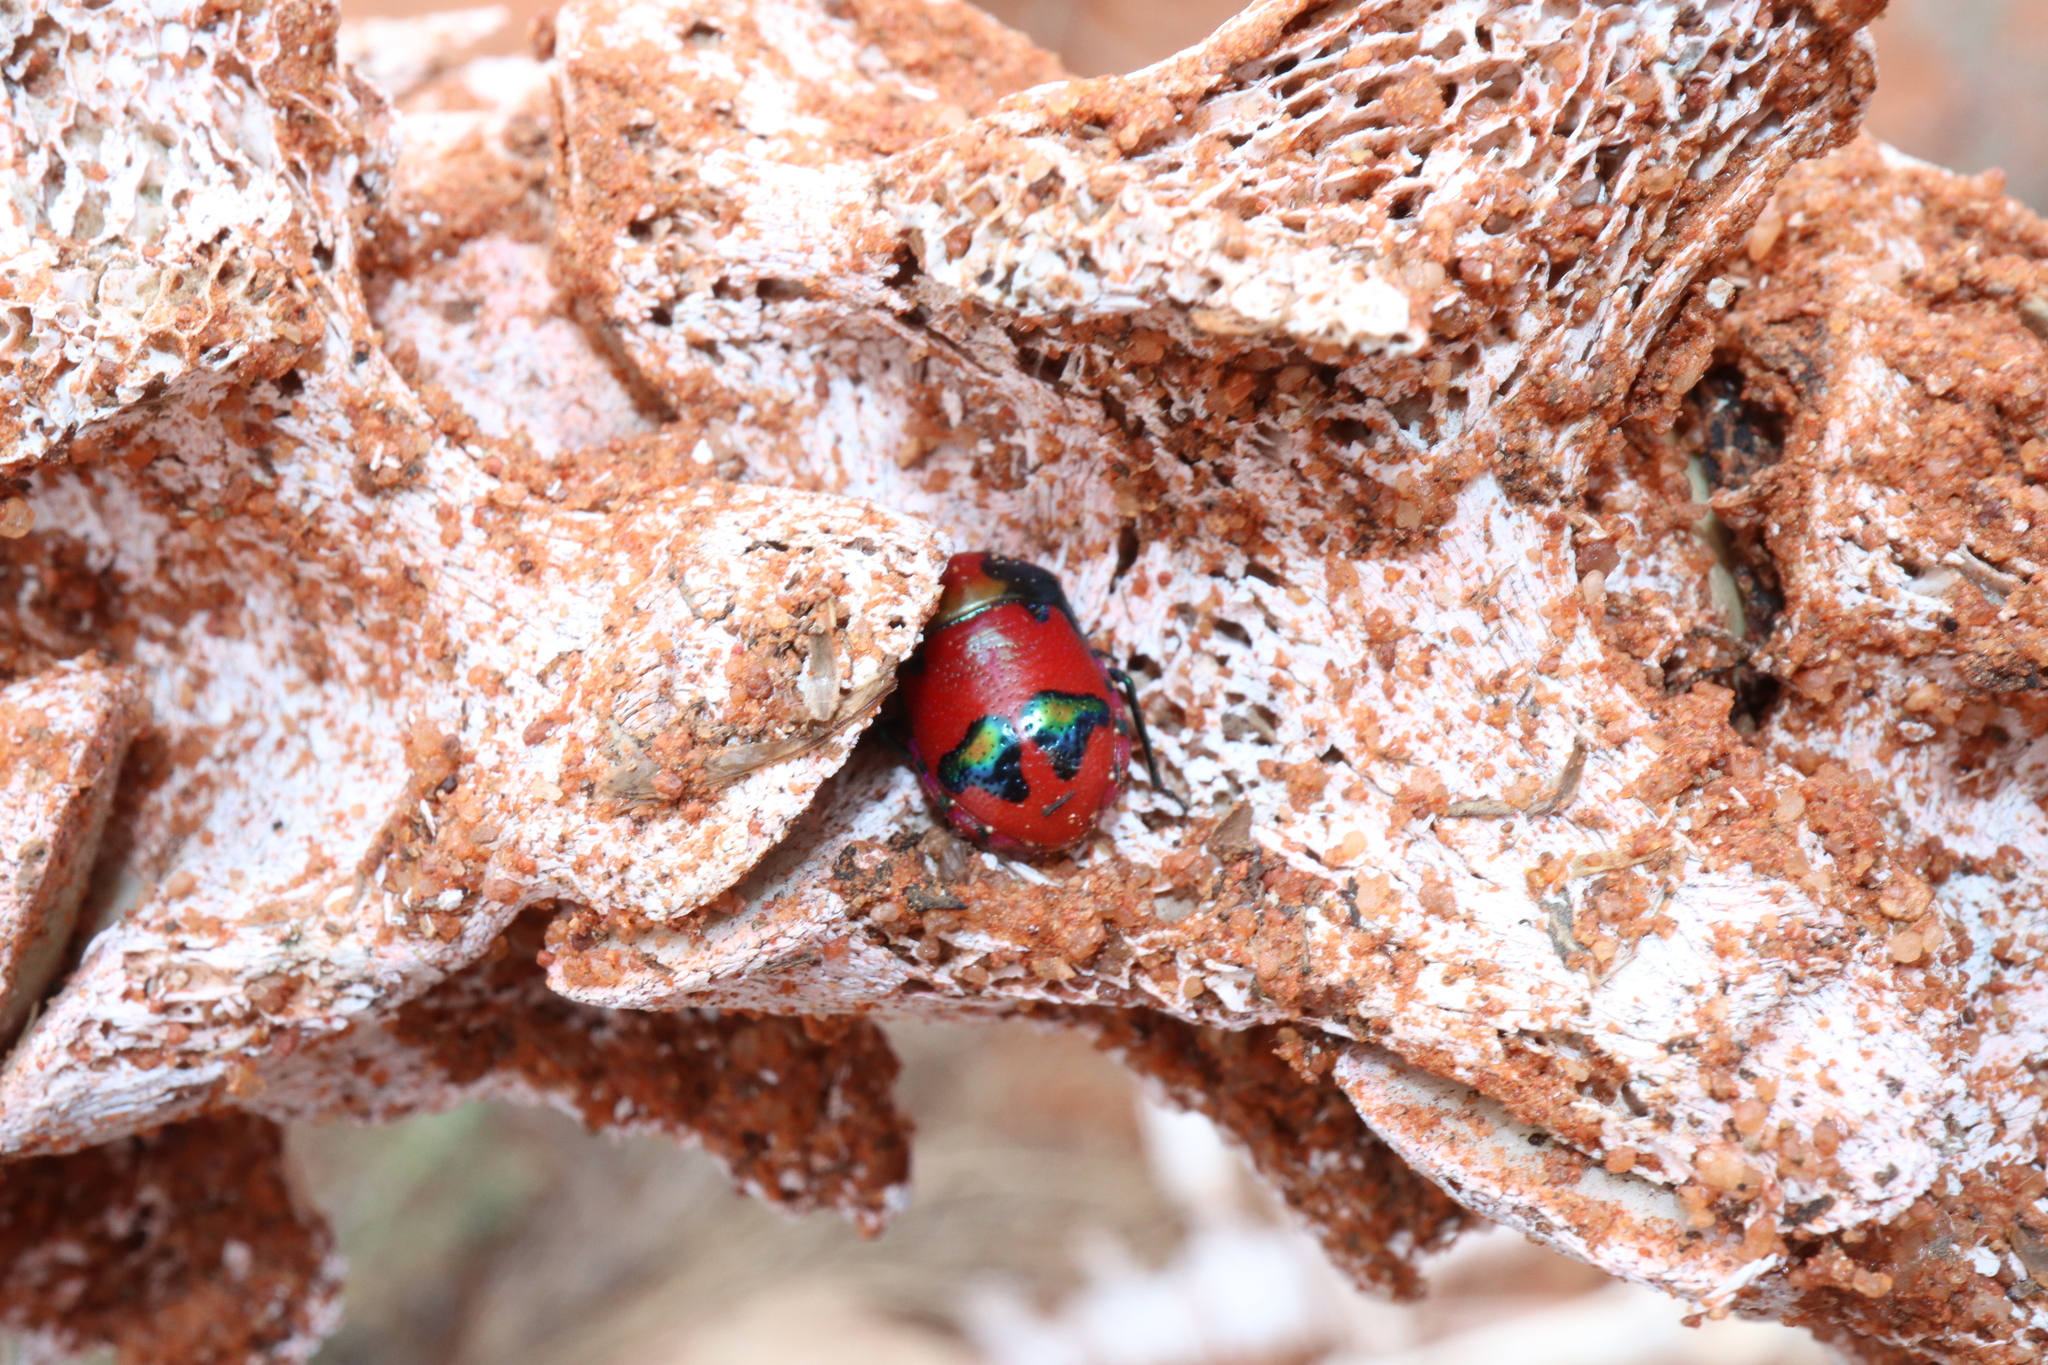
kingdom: Animalia
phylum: Arthropoda
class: Insecta
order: Hemiptera
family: Scutelleridae
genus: Choerocoris
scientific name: Choerocoris paganus
